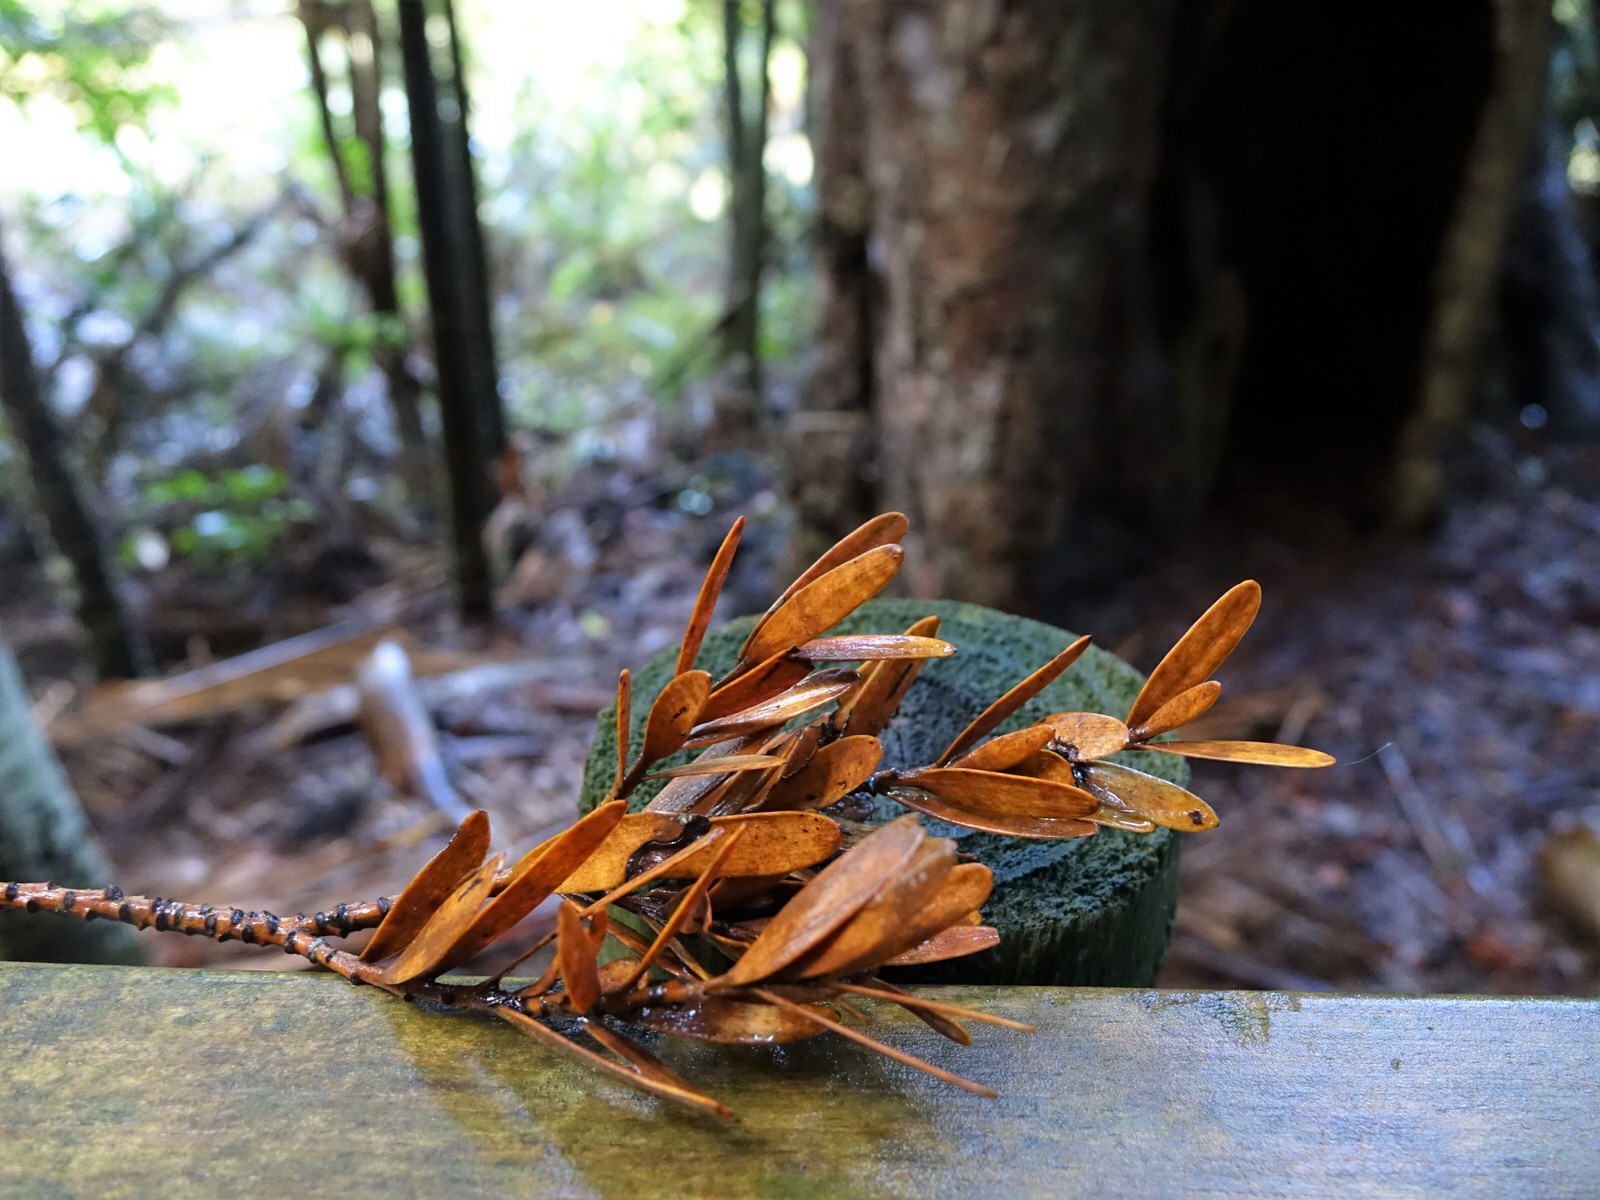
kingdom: Plantae
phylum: Tracheophyta
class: Pinopsida
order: Pinales
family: Araucariaceae
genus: Agathis
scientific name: Agathis australis
